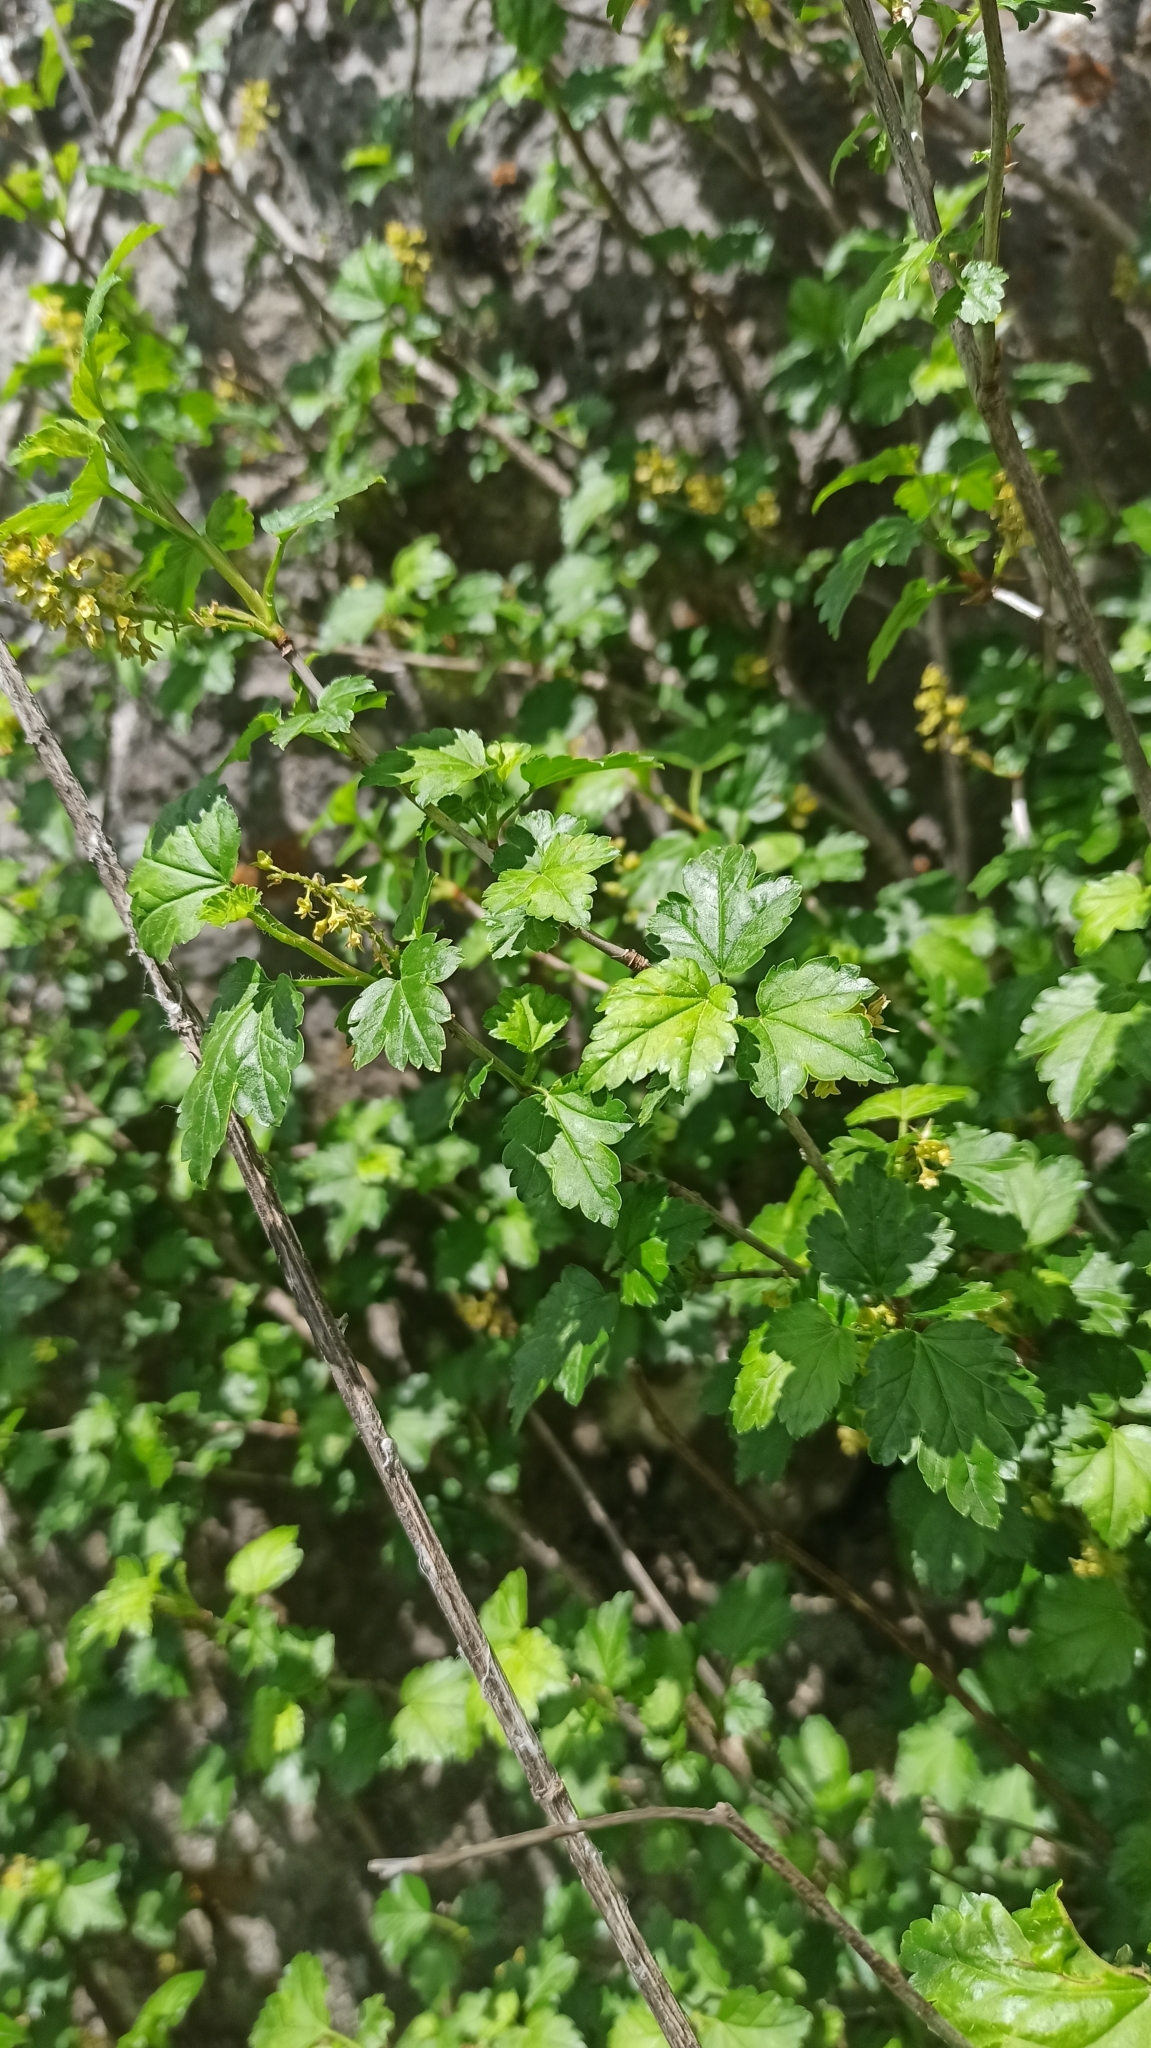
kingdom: Plantae
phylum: Tracheophyta
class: Magnoliopsida
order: Saxifragales
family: Grossulariaceae
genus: Ribes
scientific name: Ribes alpinum
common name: Alpine currant
